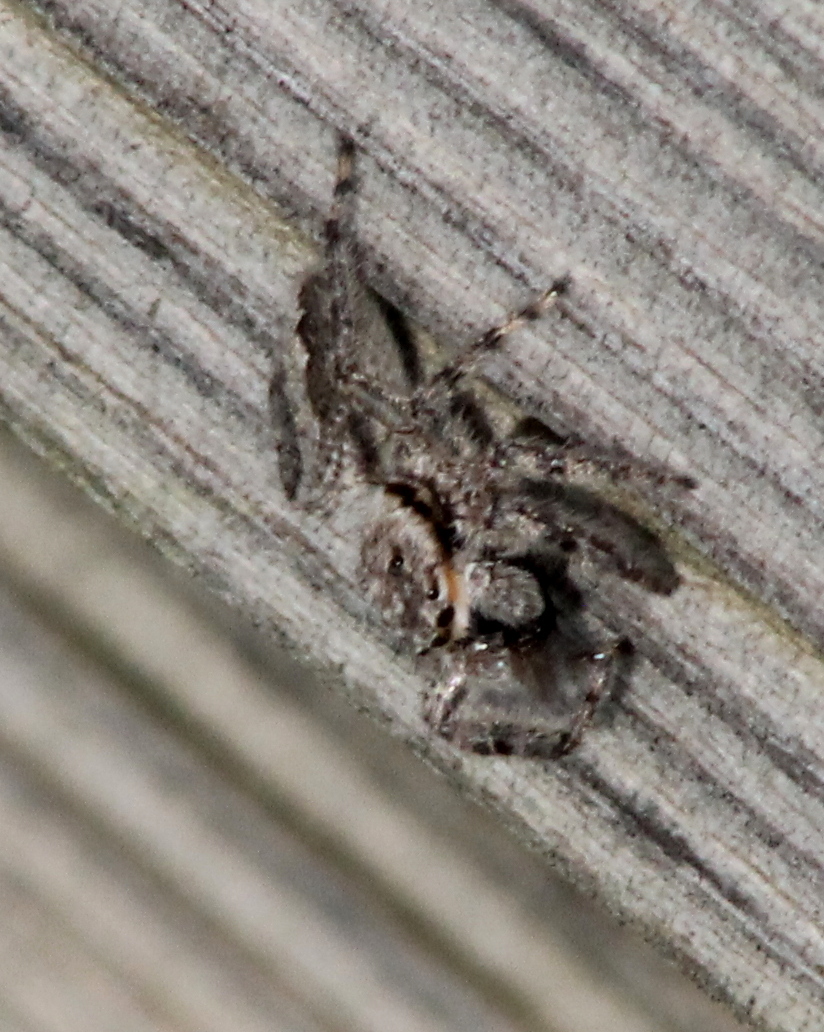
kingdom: Animalia
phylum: Arthropoda
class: Arachnida
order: Araneae
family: Salticidae
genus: Platycryptus
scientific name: Platycryptus undatus
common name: Tan jumping spider
